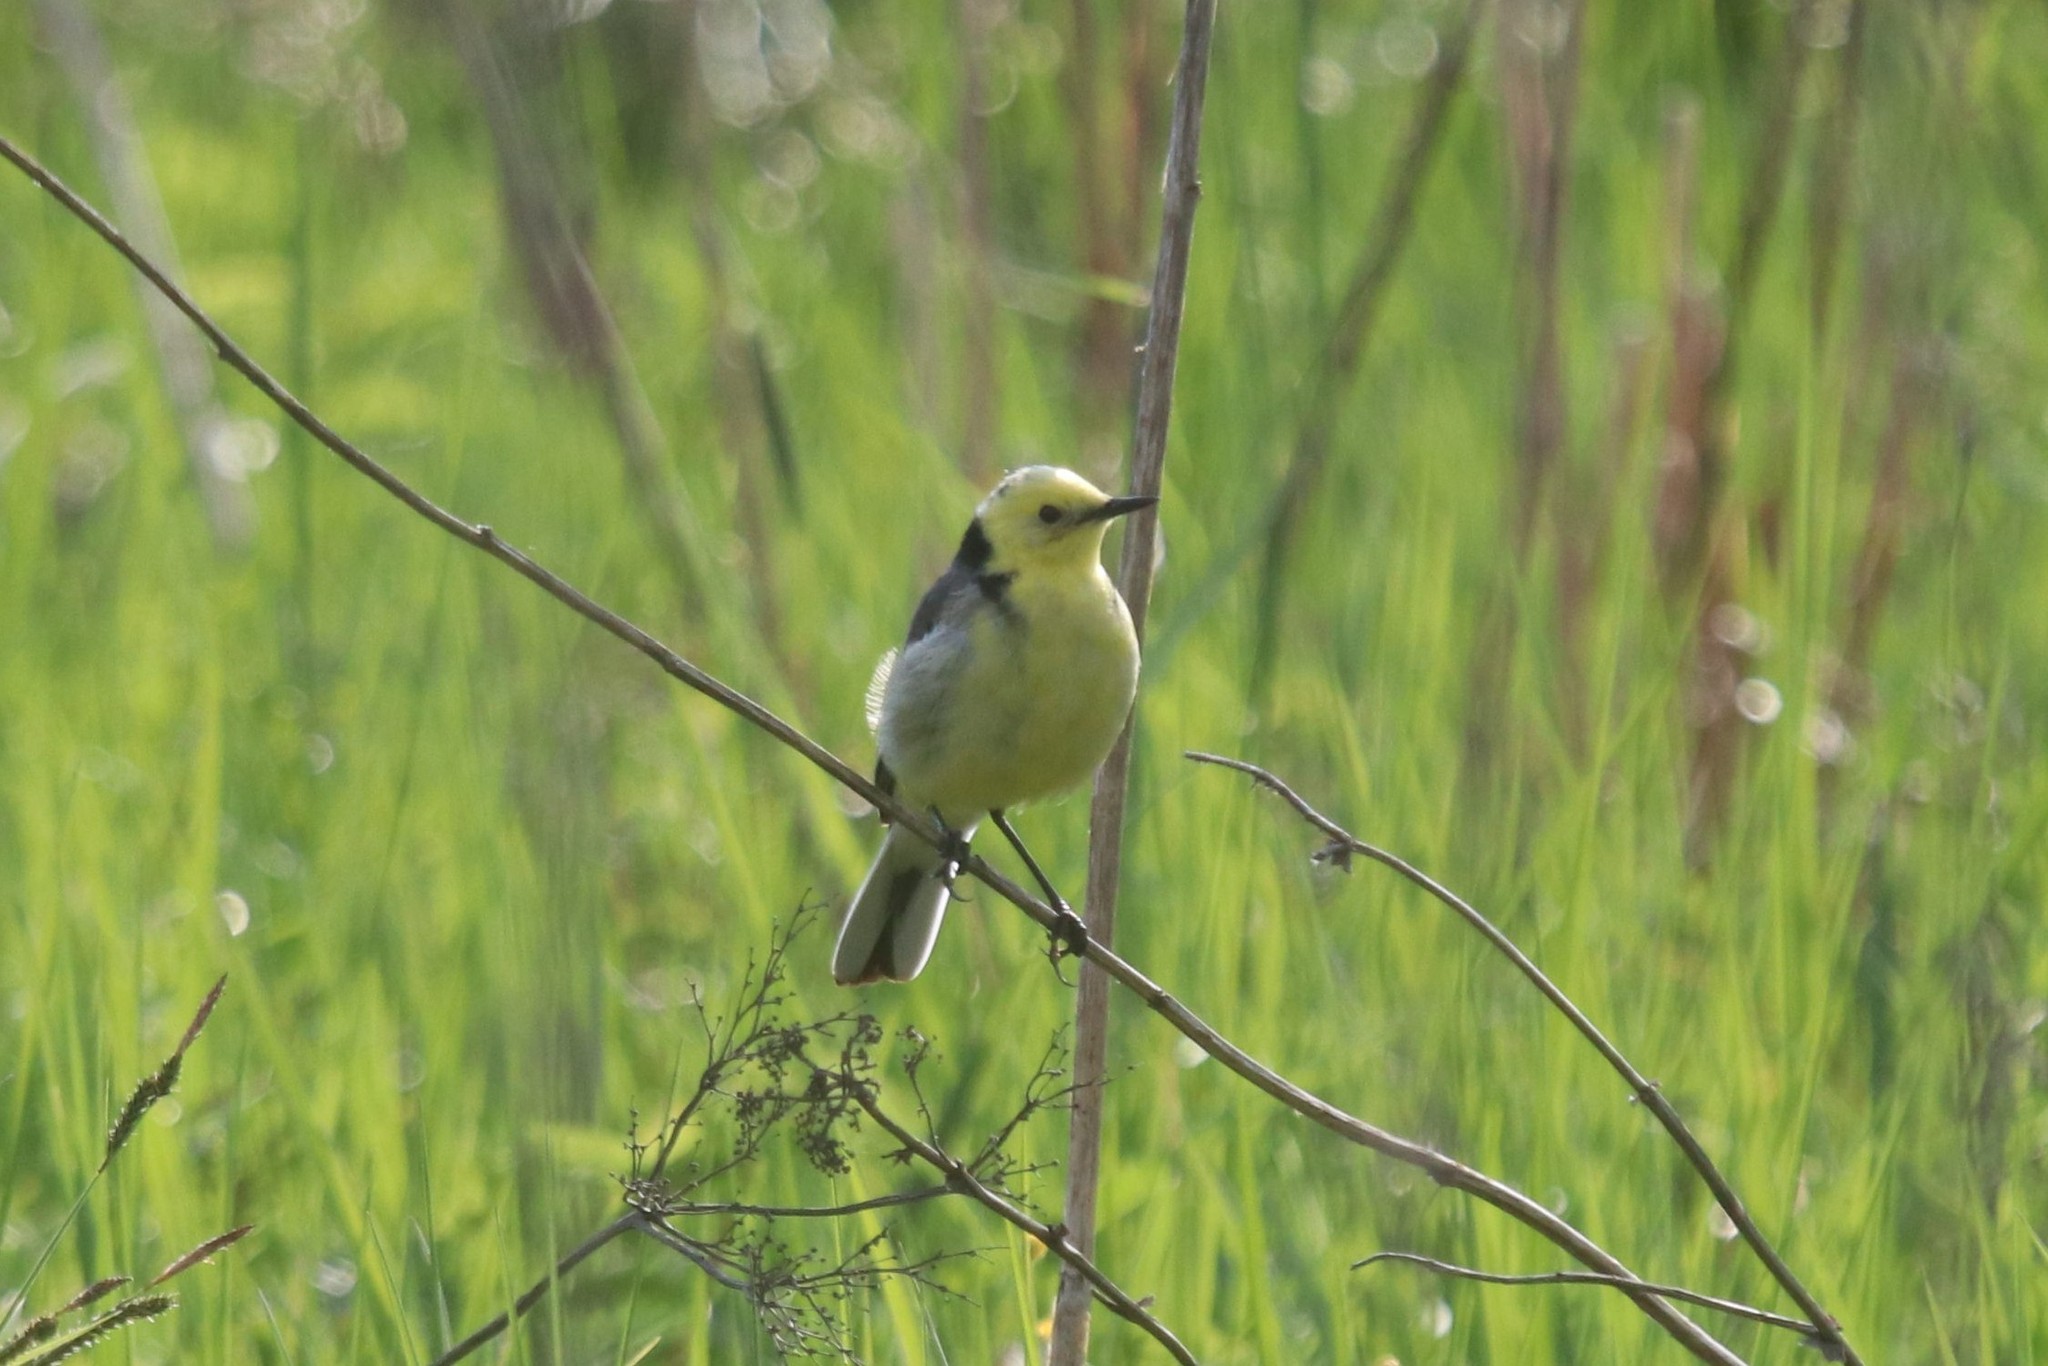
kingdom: Animalia
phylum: Chordata
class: Aves
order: Passeriformes
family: Motacillidae
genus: Motacilla
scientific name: Motacilla citreola
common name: Citrine wagtail
